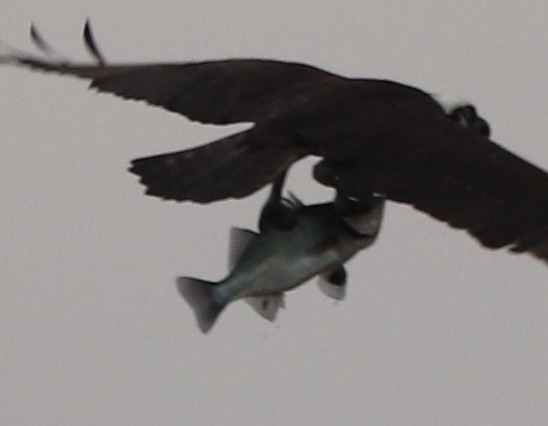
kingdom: Animalia
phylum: Chordata
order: Perciformes
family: Moronidae
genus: Morone
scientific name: Morone americana
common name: White perch
